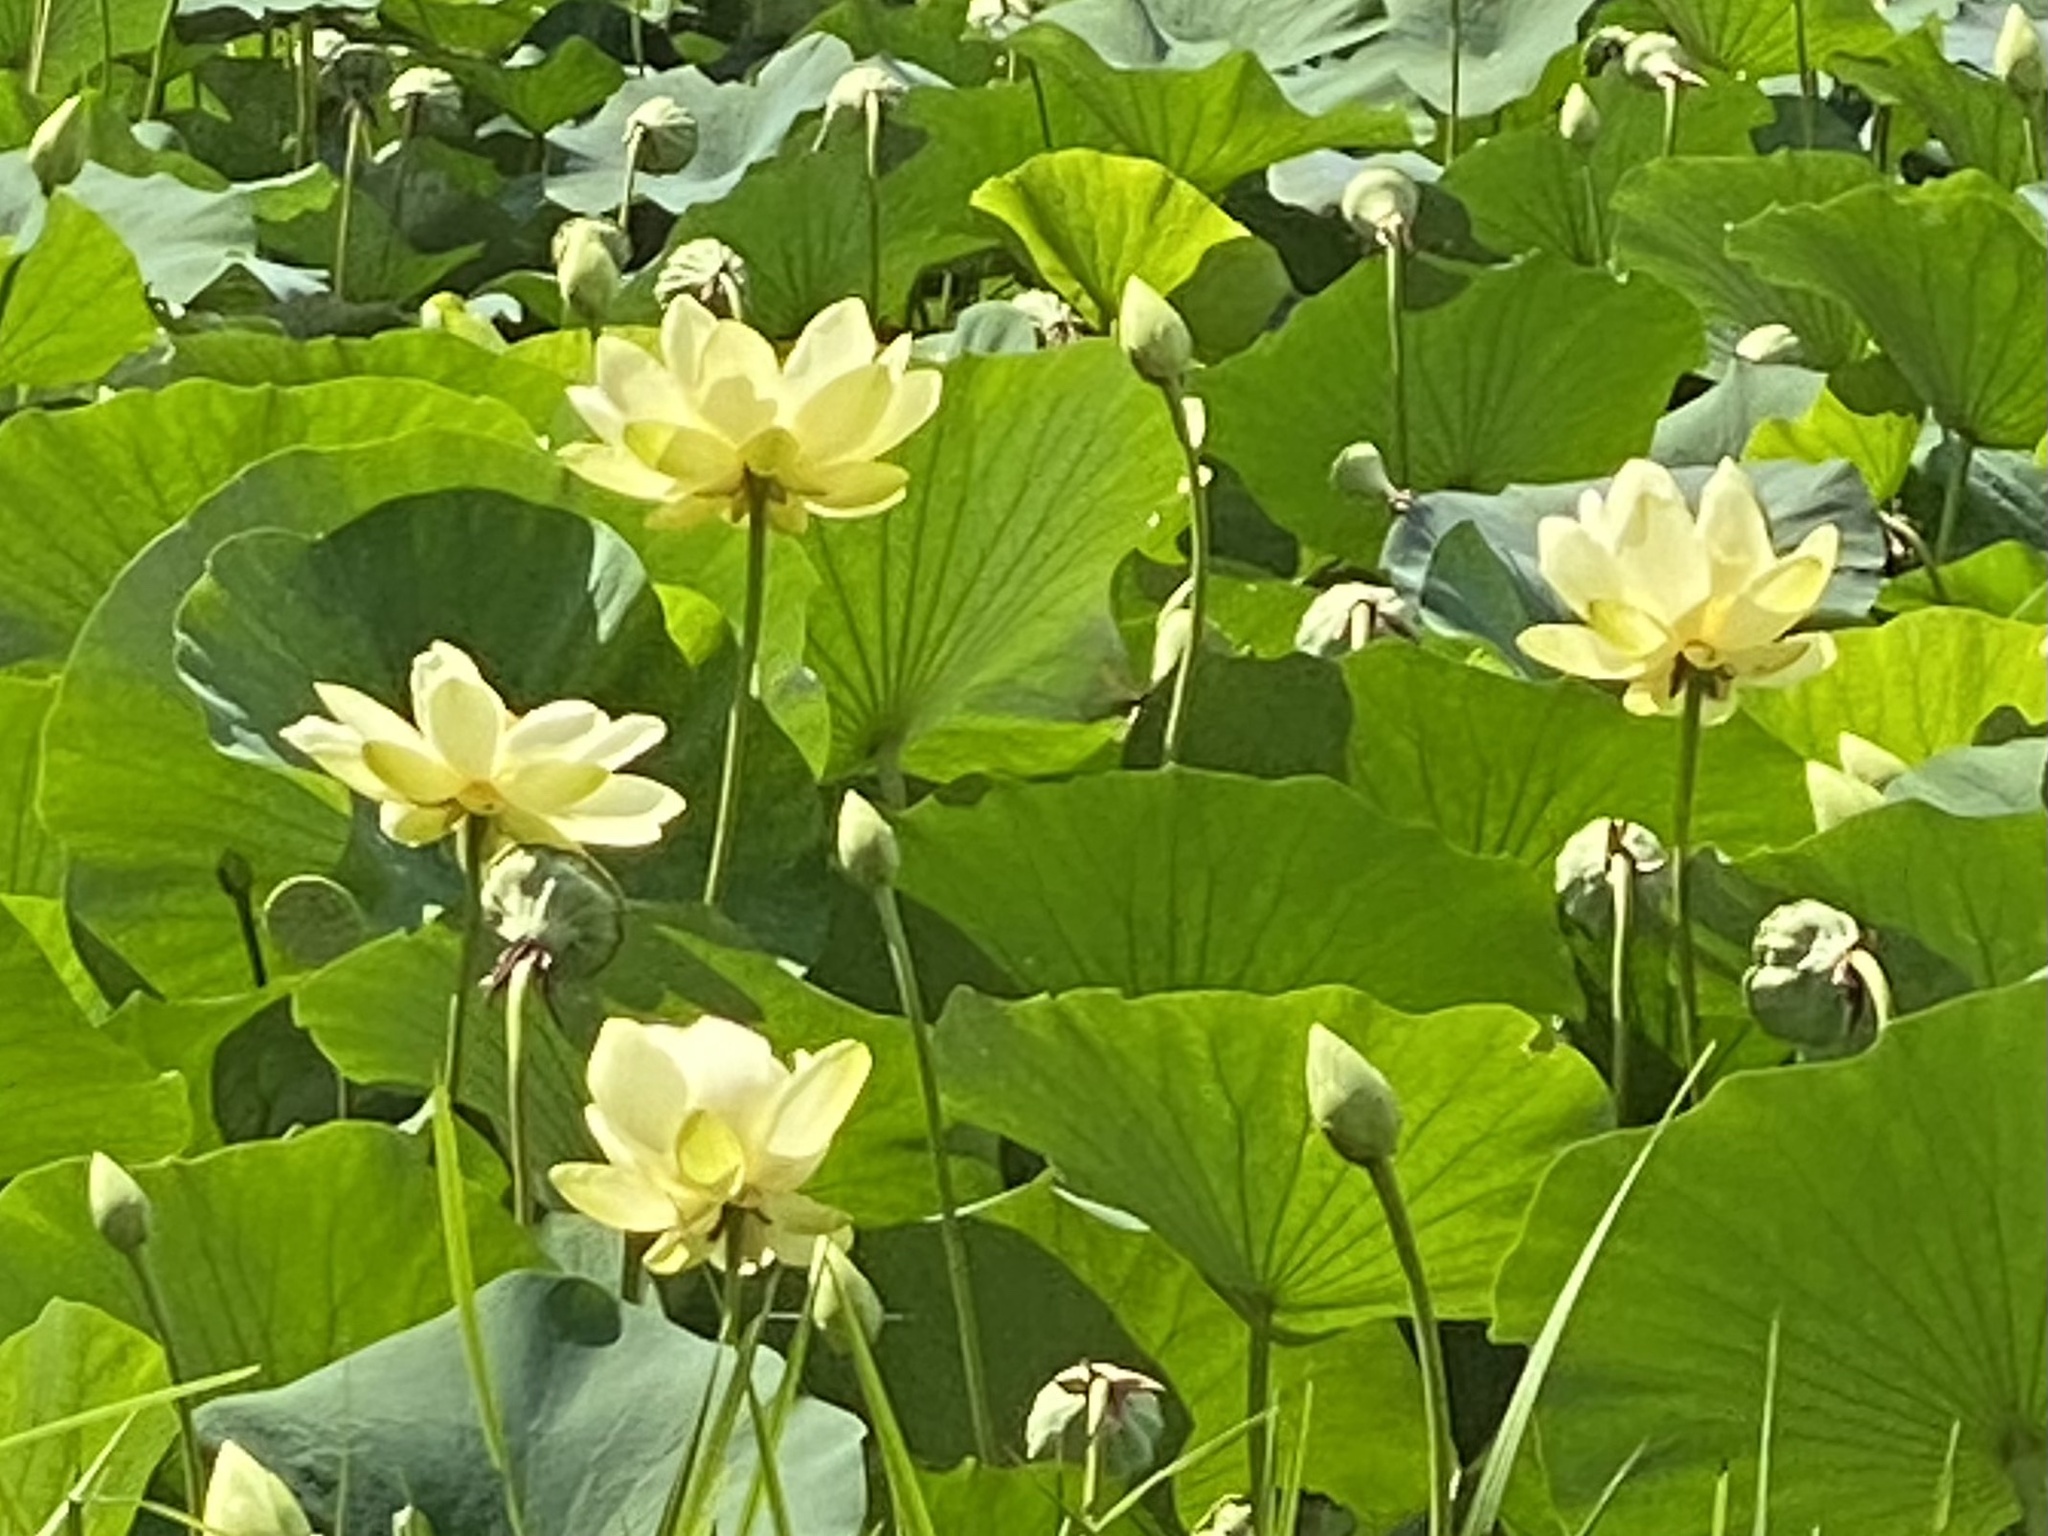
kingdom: Plantae
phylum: Tracheophyta
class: Magnoliopsida
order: Proteales
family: Nelumbonaceae
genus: Nelumbo
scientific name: Nelumbo lutea
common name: American lotus
